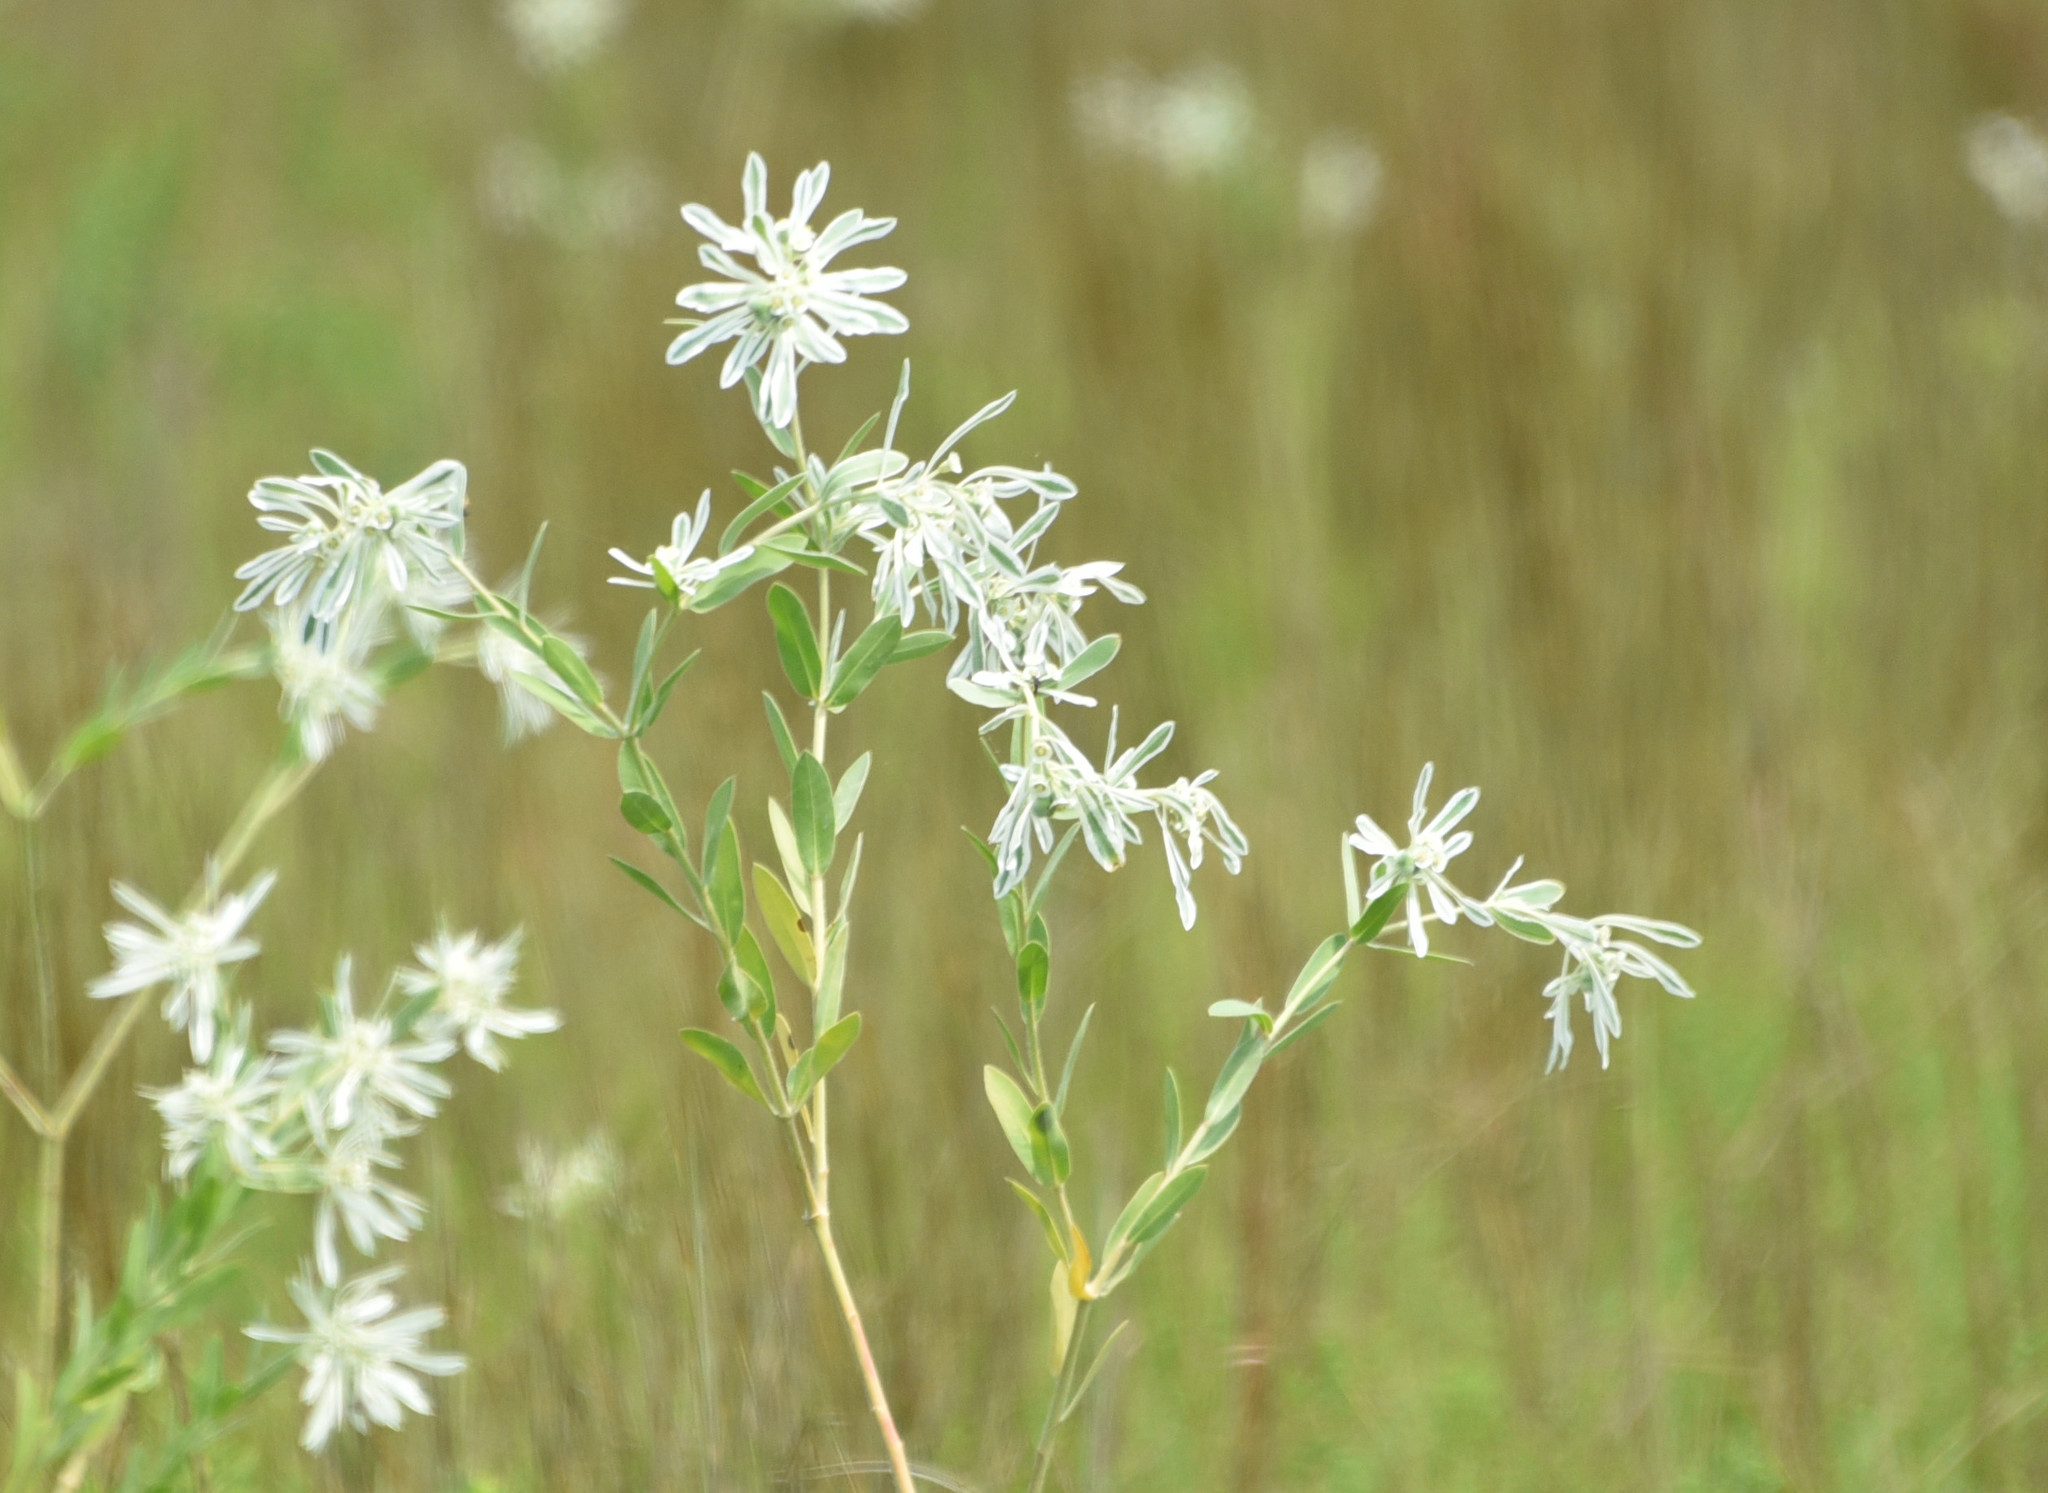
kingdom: Plantae
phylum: Tracheophyta
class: Magnoliopsida
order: Malpighiales
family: Euphorbiaceae
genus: Euphorbia
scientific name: Euphorbia bicolor
